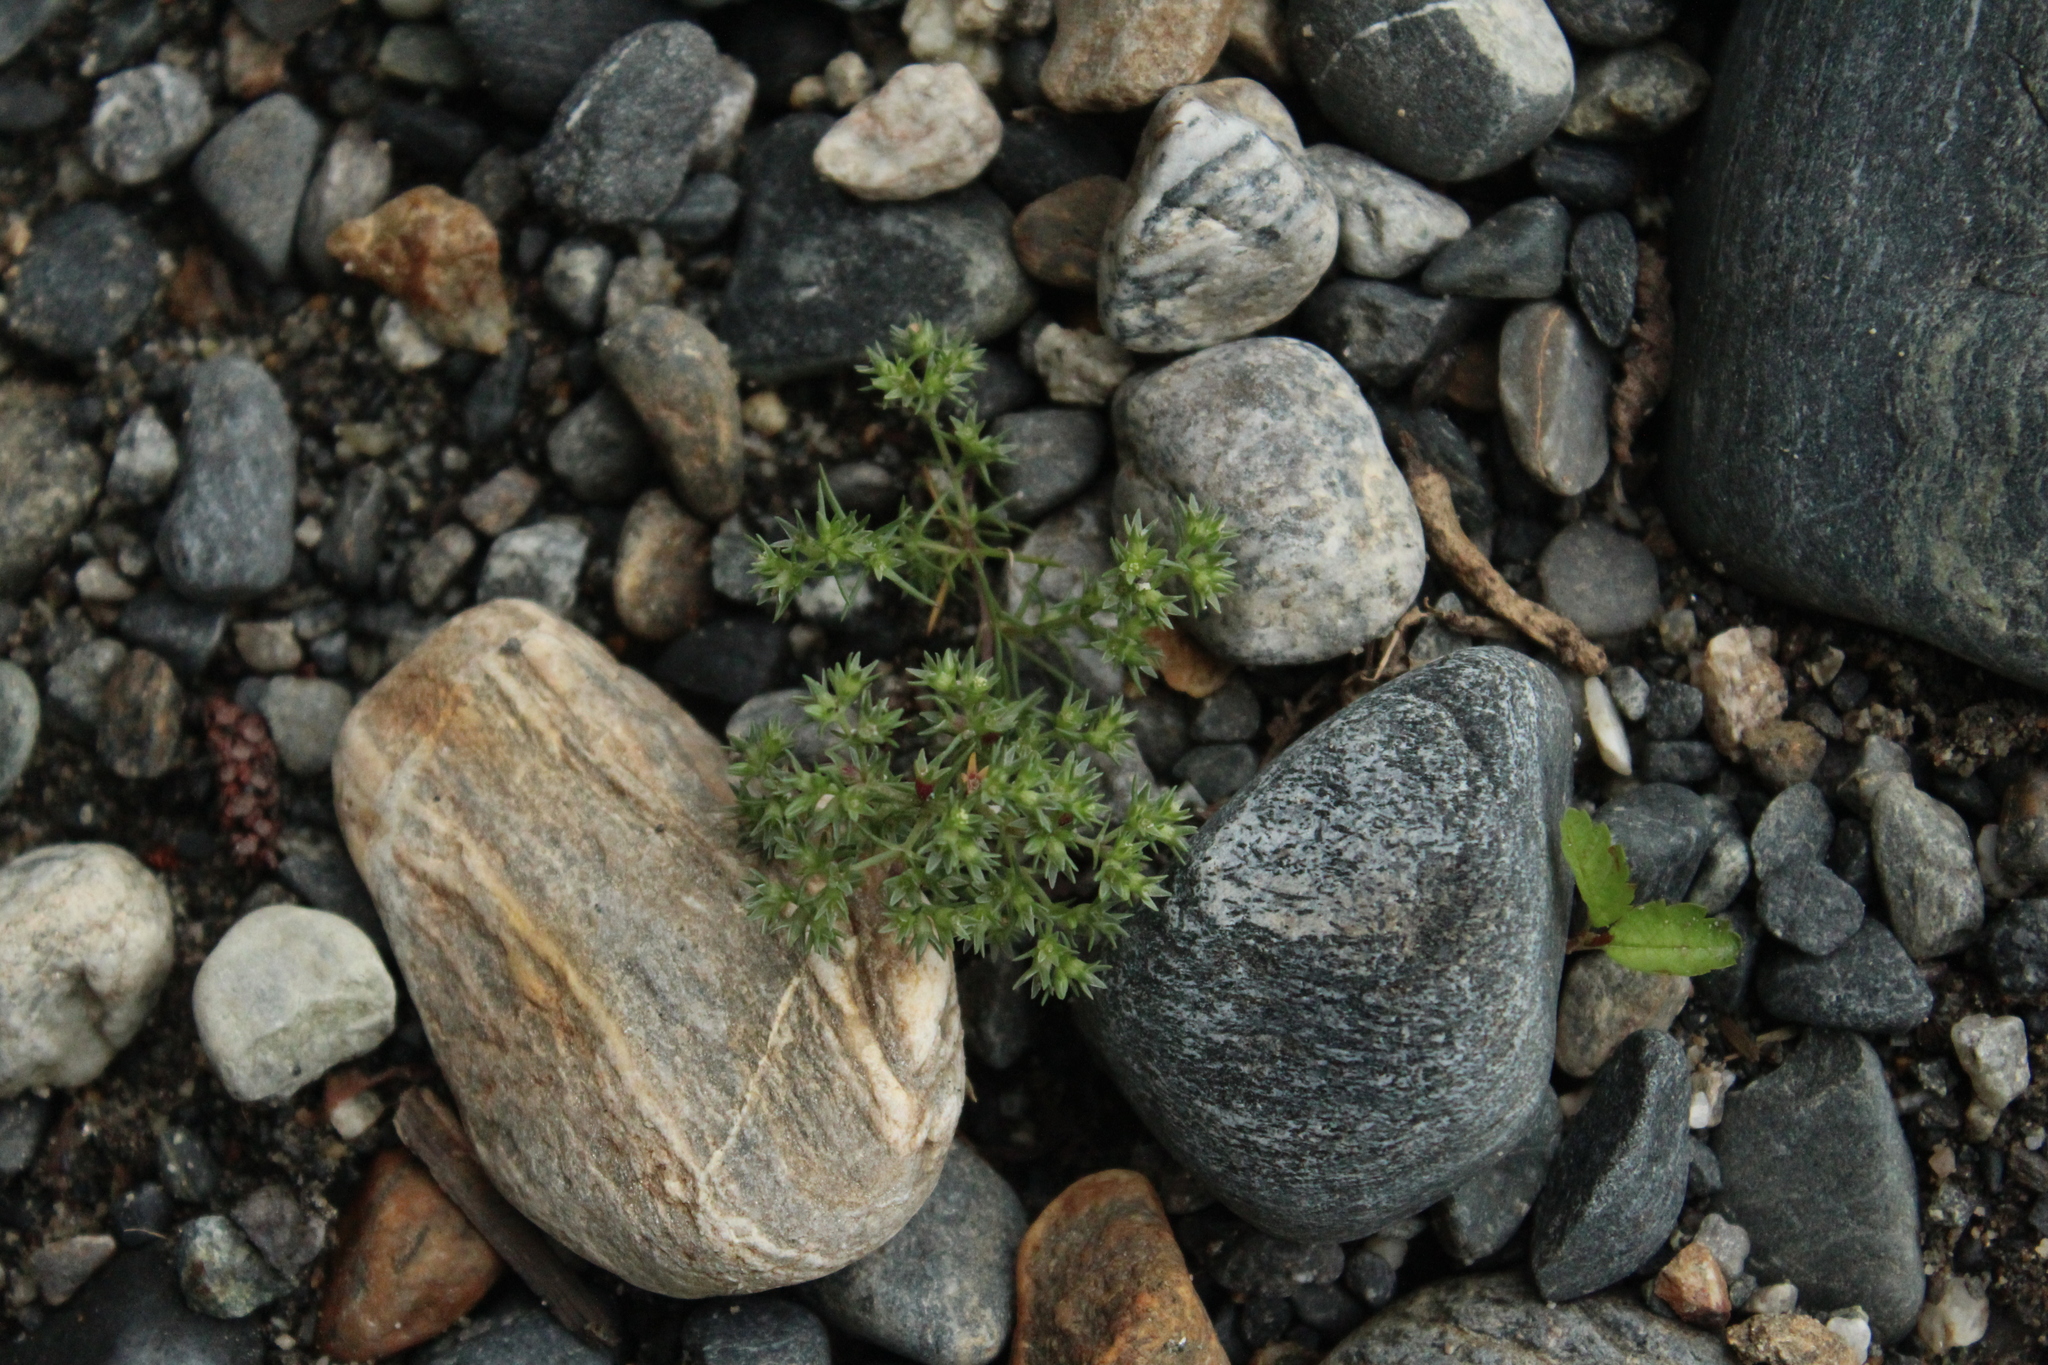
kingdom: Plantae
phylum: Tracheophyta
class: Magnoliopsida
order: Caryophyllales
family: Caryophyllaceae
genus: Scleranthus
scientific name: Scleranthus annuus
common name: Annual knawel
